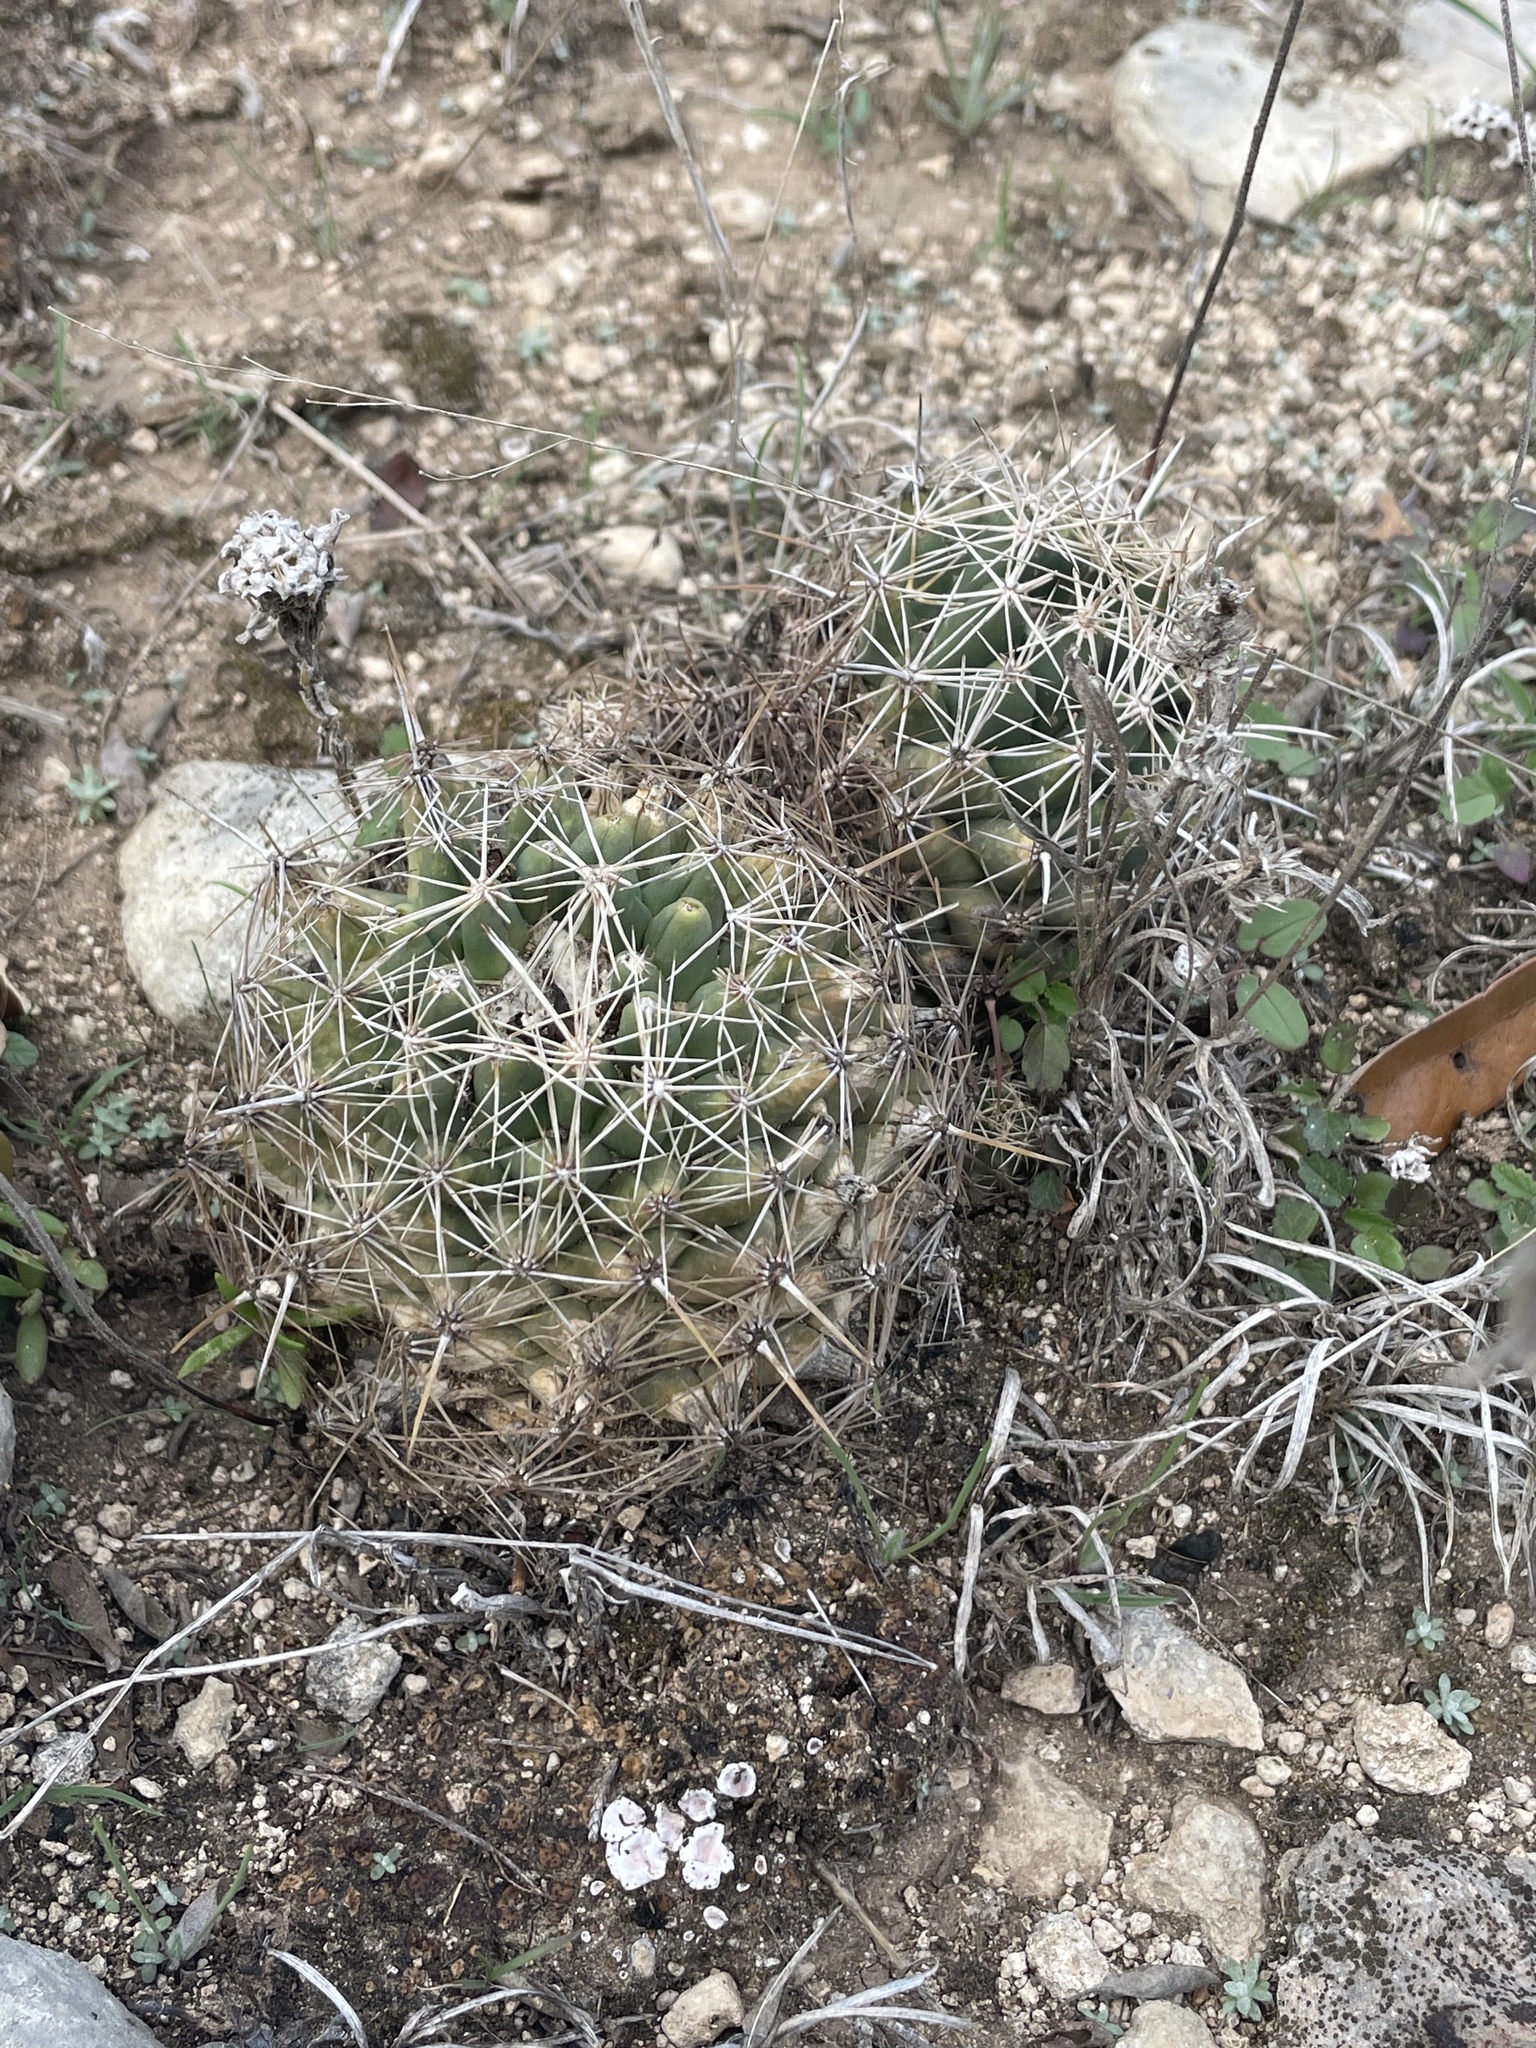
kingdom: Plantae
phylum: Tracheophyta
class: Magnoliopsida
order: Caryophyllales
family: Cactaceae
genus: Coryphantha
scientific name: Coryphantha sulcata
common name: Finger cactus
